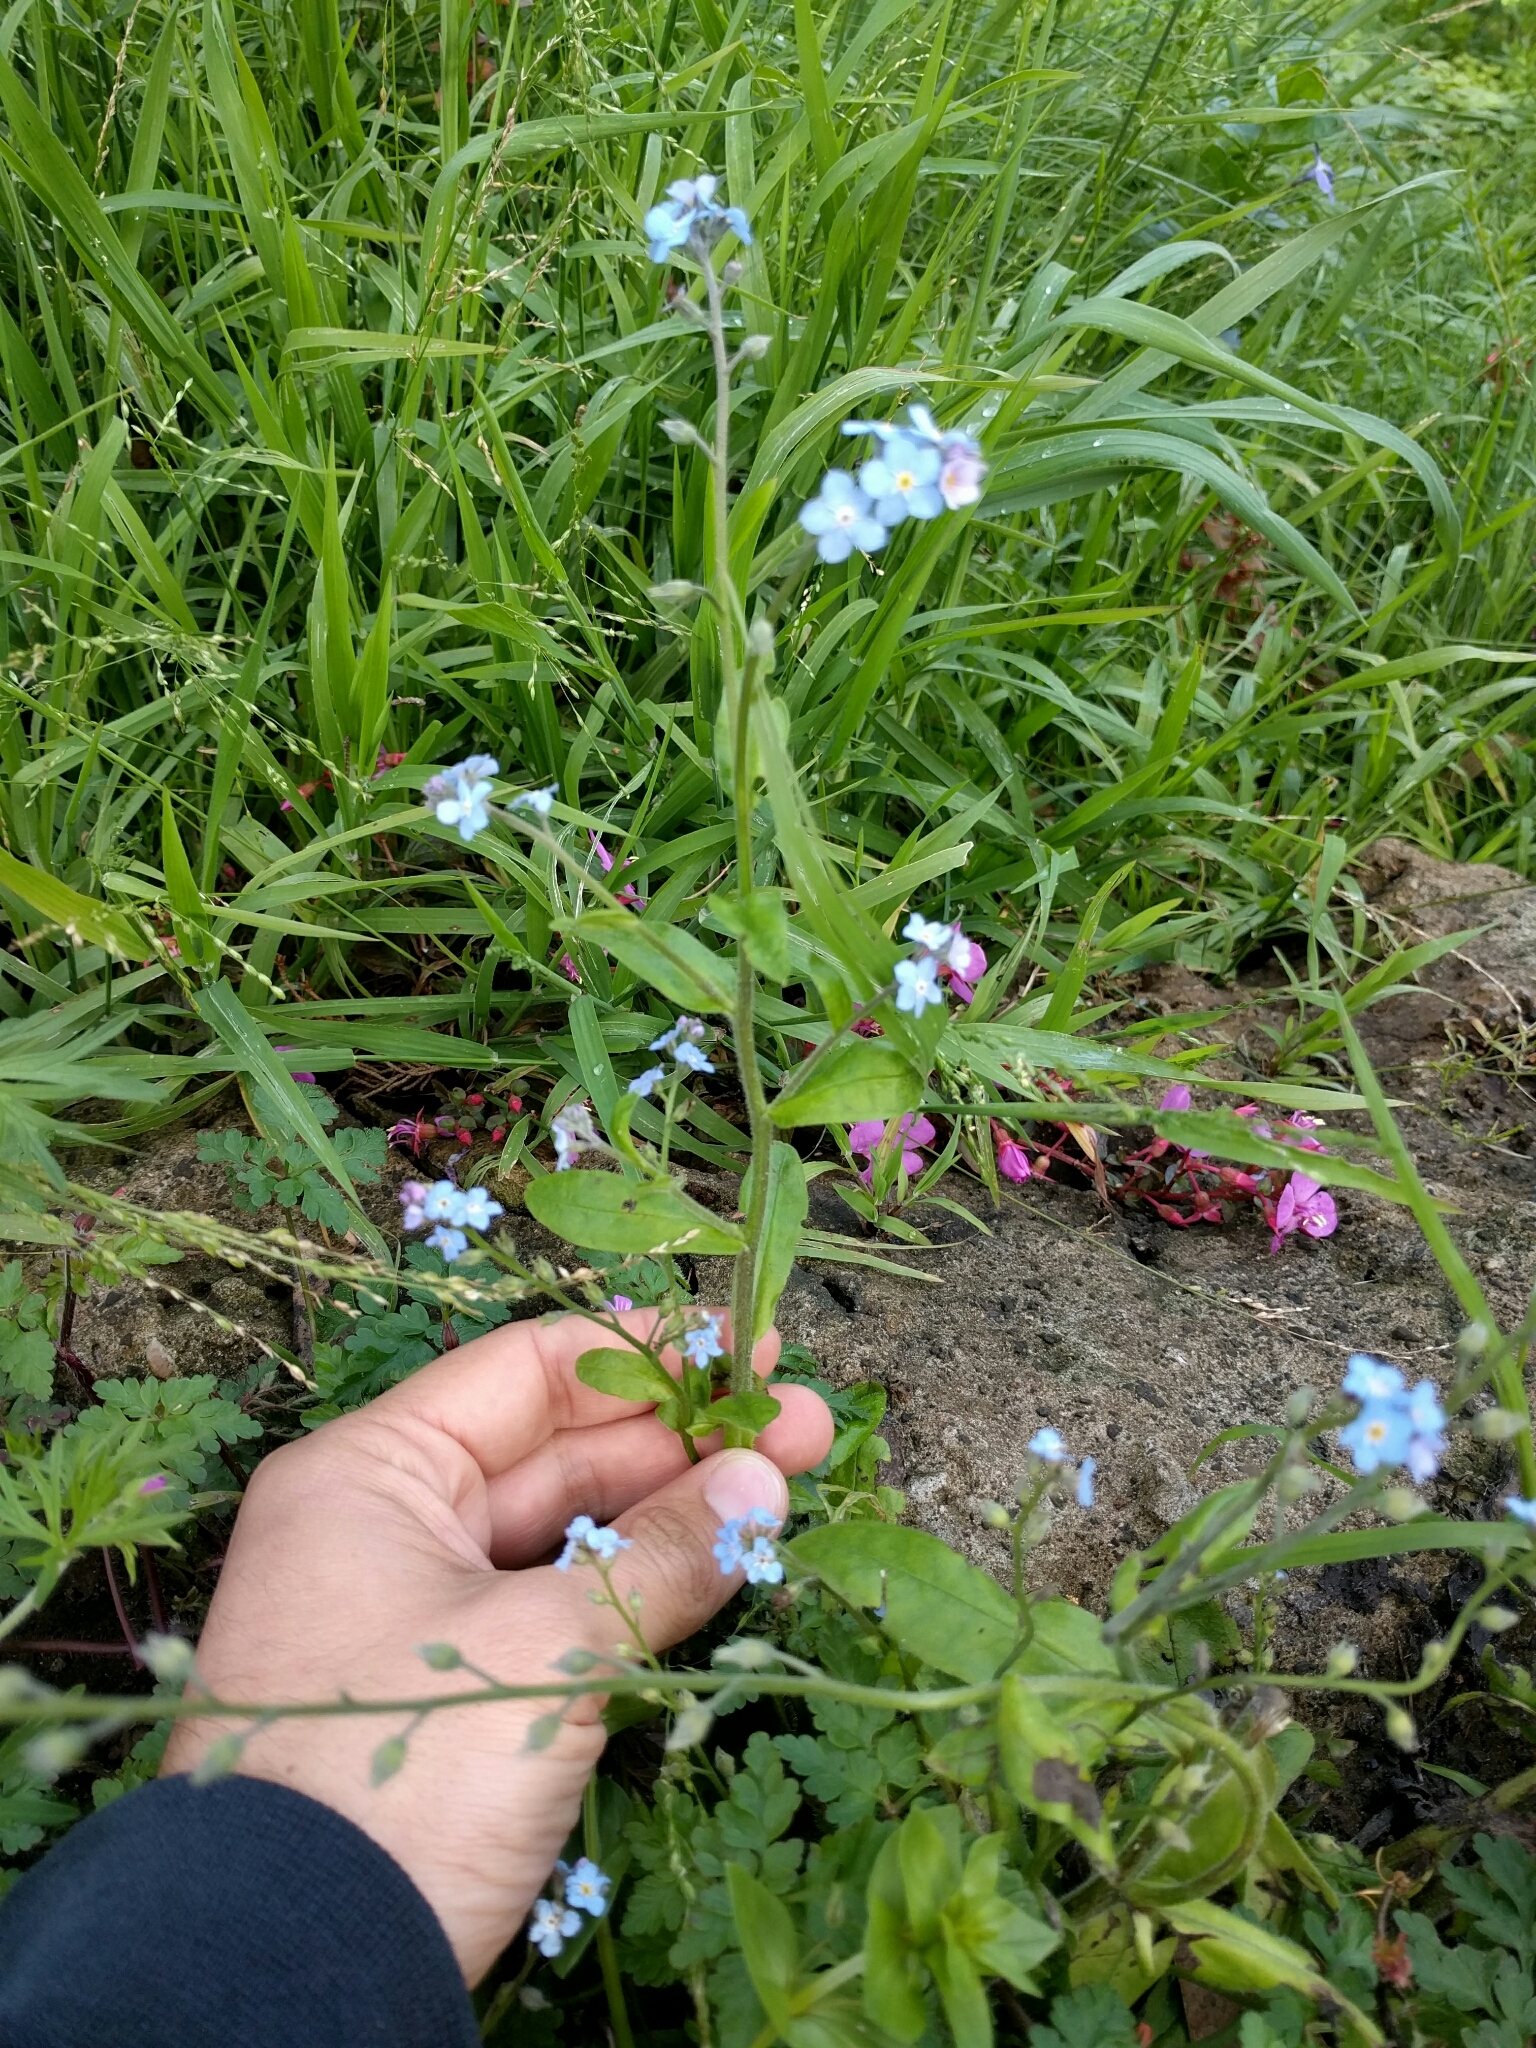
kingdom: Plantae
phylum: Tracheophyta
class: Magnoliopsida
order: Boraginales
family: Boraginaceae
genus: Myosotis
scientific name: Myosotis latifolia
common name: Broadleaf forget-me-not
